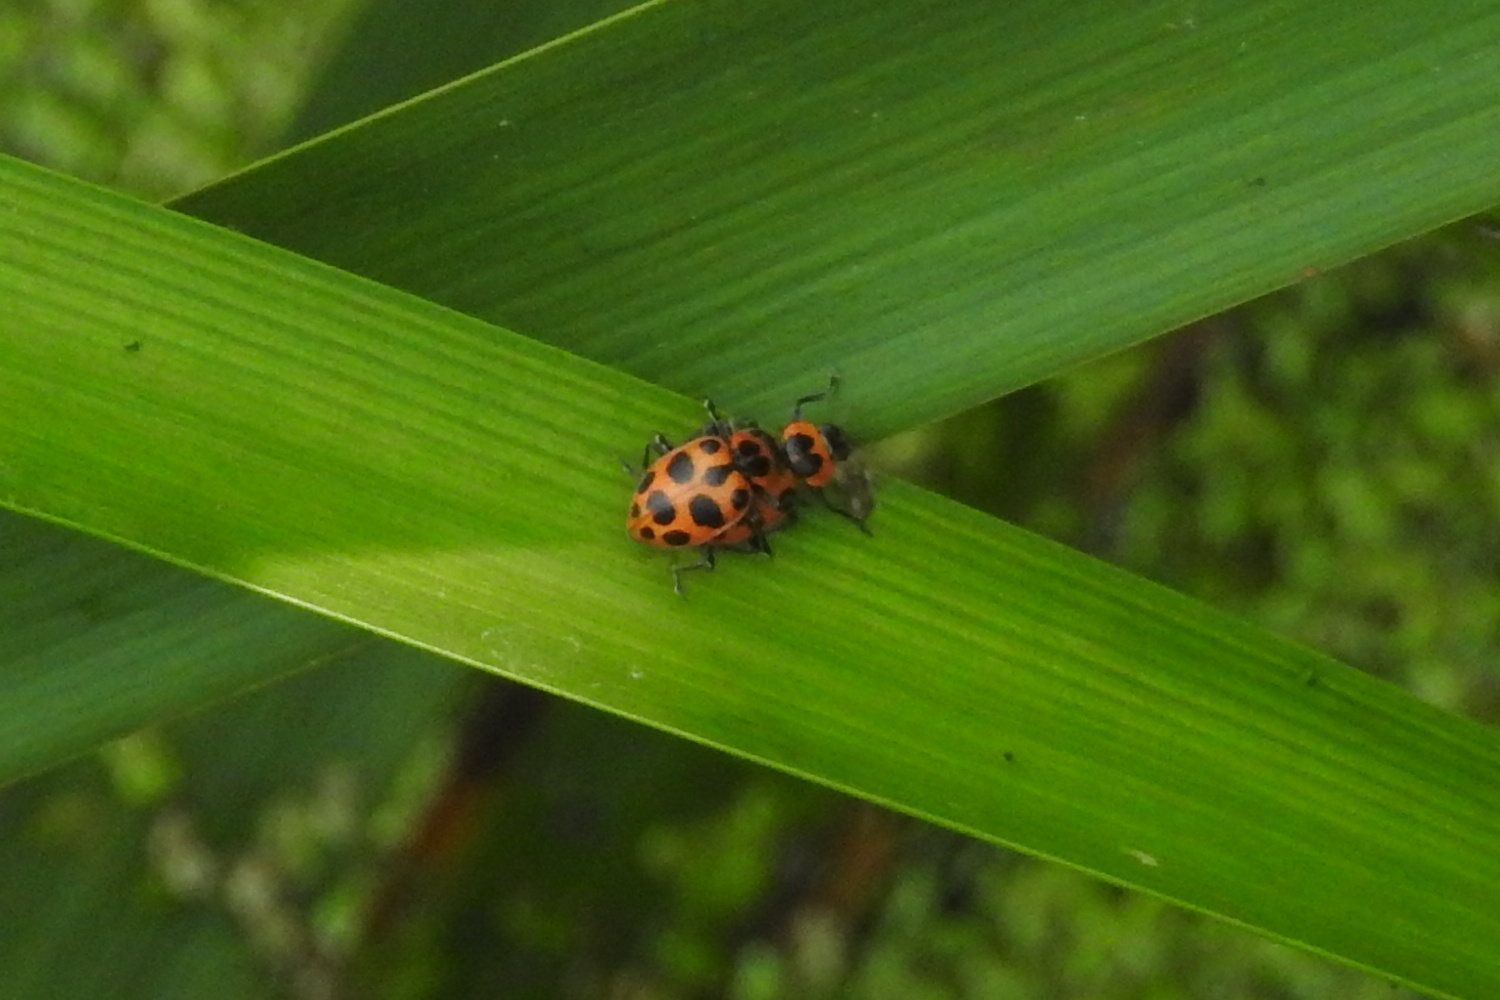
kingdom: Animalia
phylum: Arthropoda
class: Insecta
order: Coleoptera
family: Coccinellidae
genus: Coleomegilla
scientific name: Coleomegilla maculata
